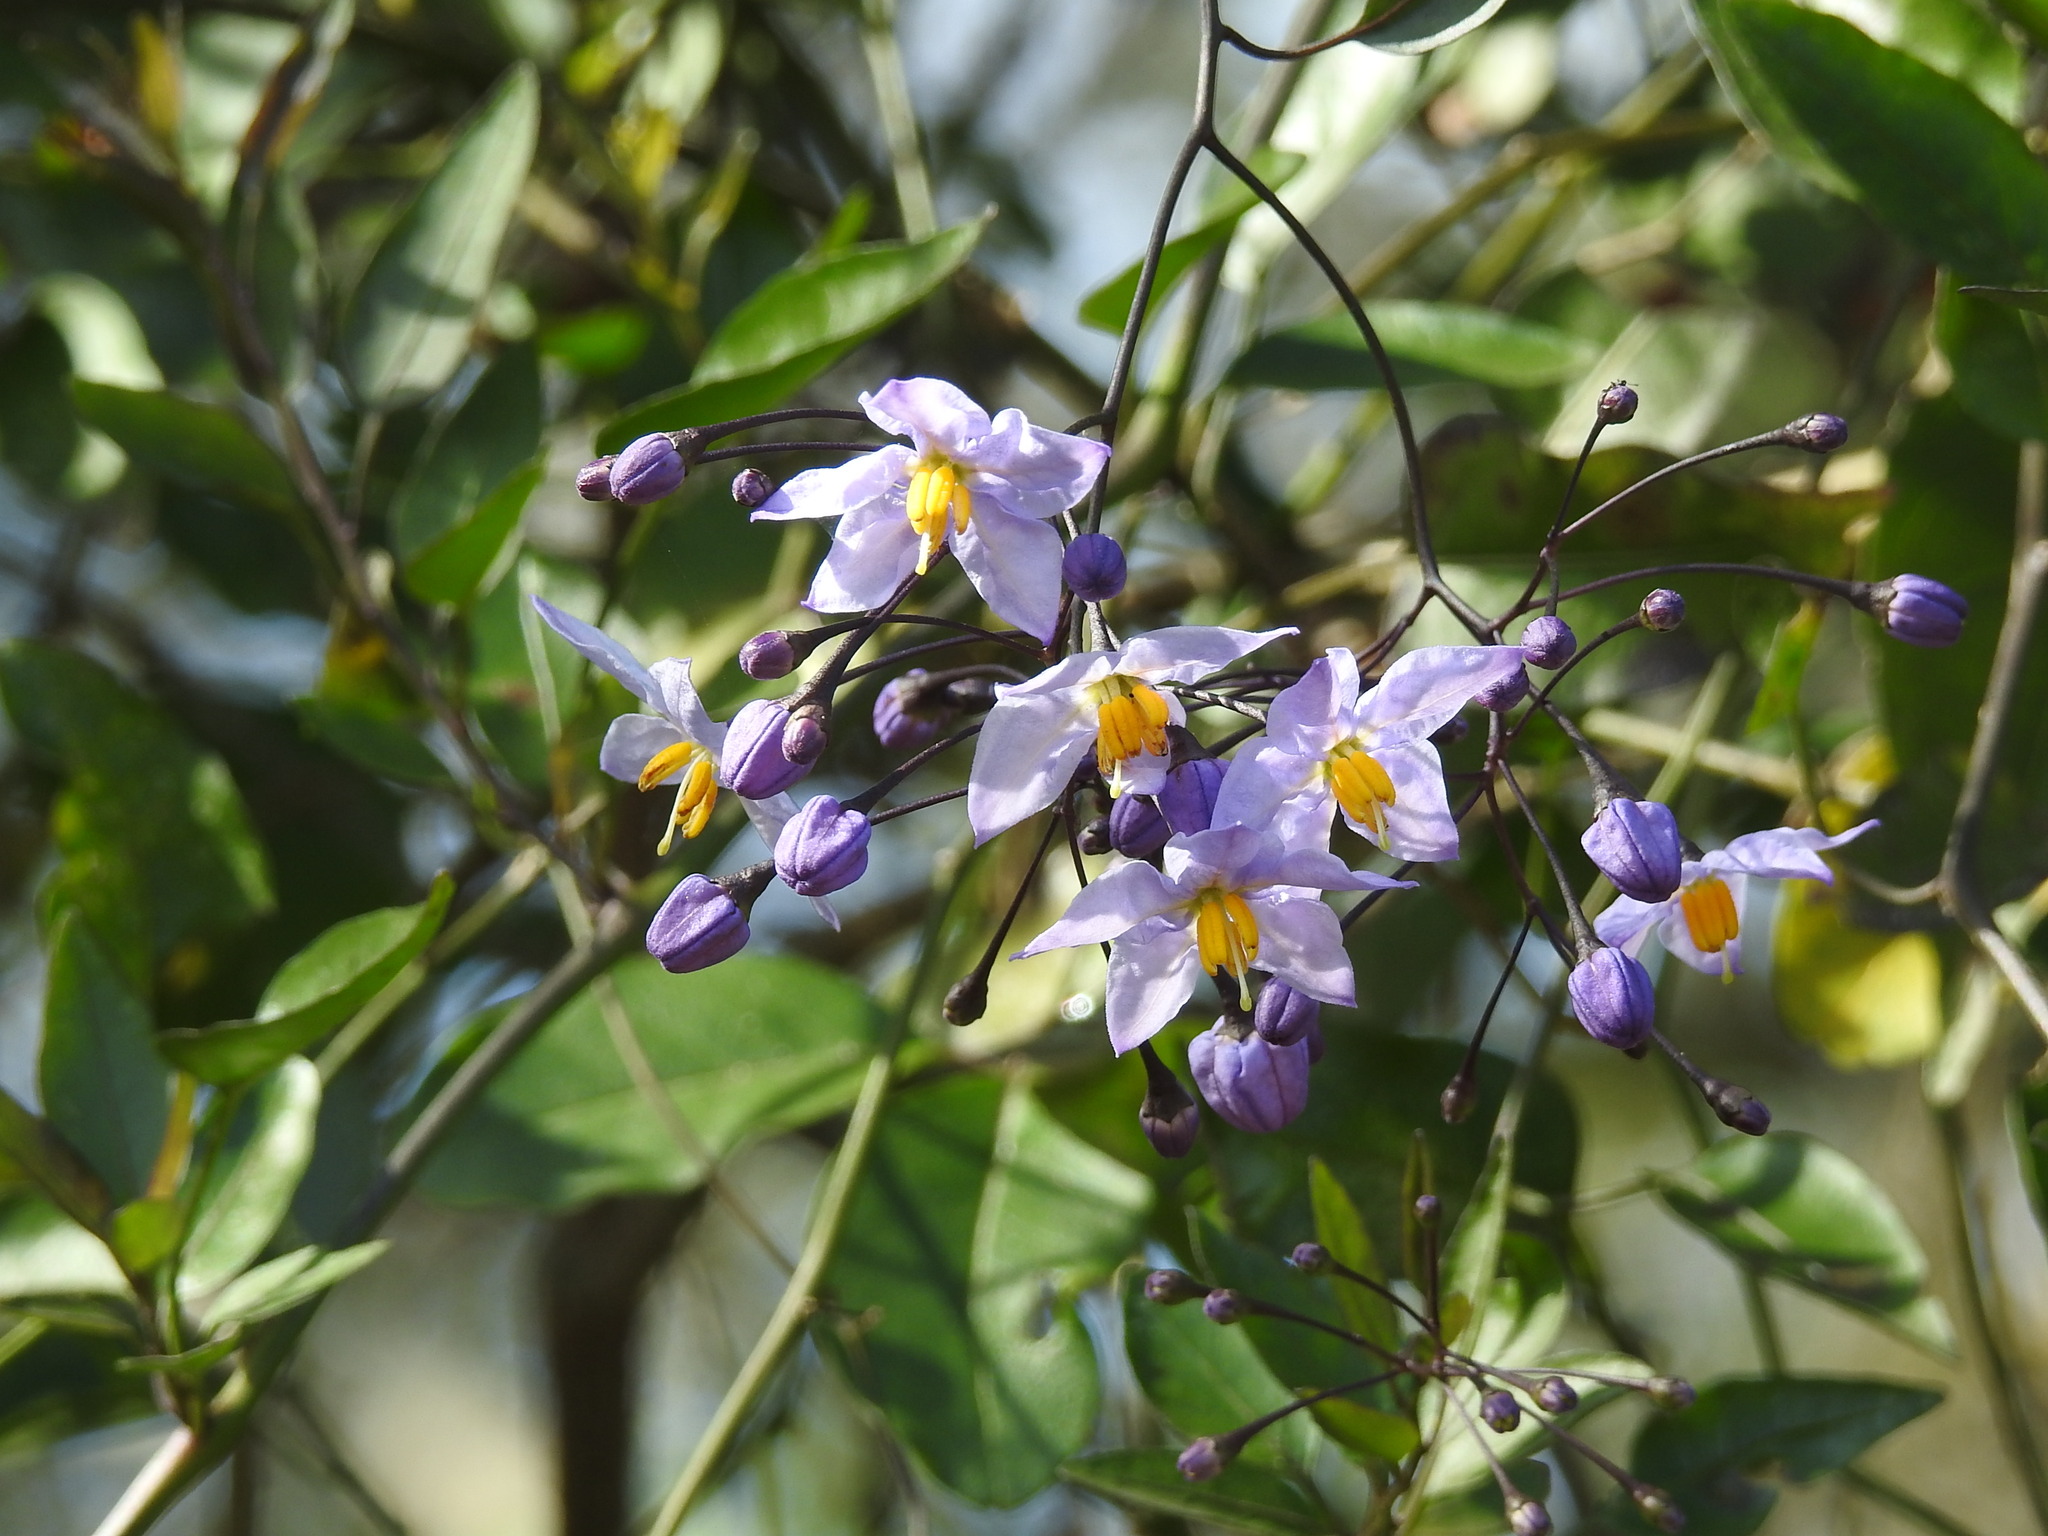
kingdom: Plantae
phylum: Tracheophyta
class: Magnoliopsida
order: Solanales
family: Solanaceae
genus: Solanum
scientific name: Solanum laxum
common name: Nightshade
